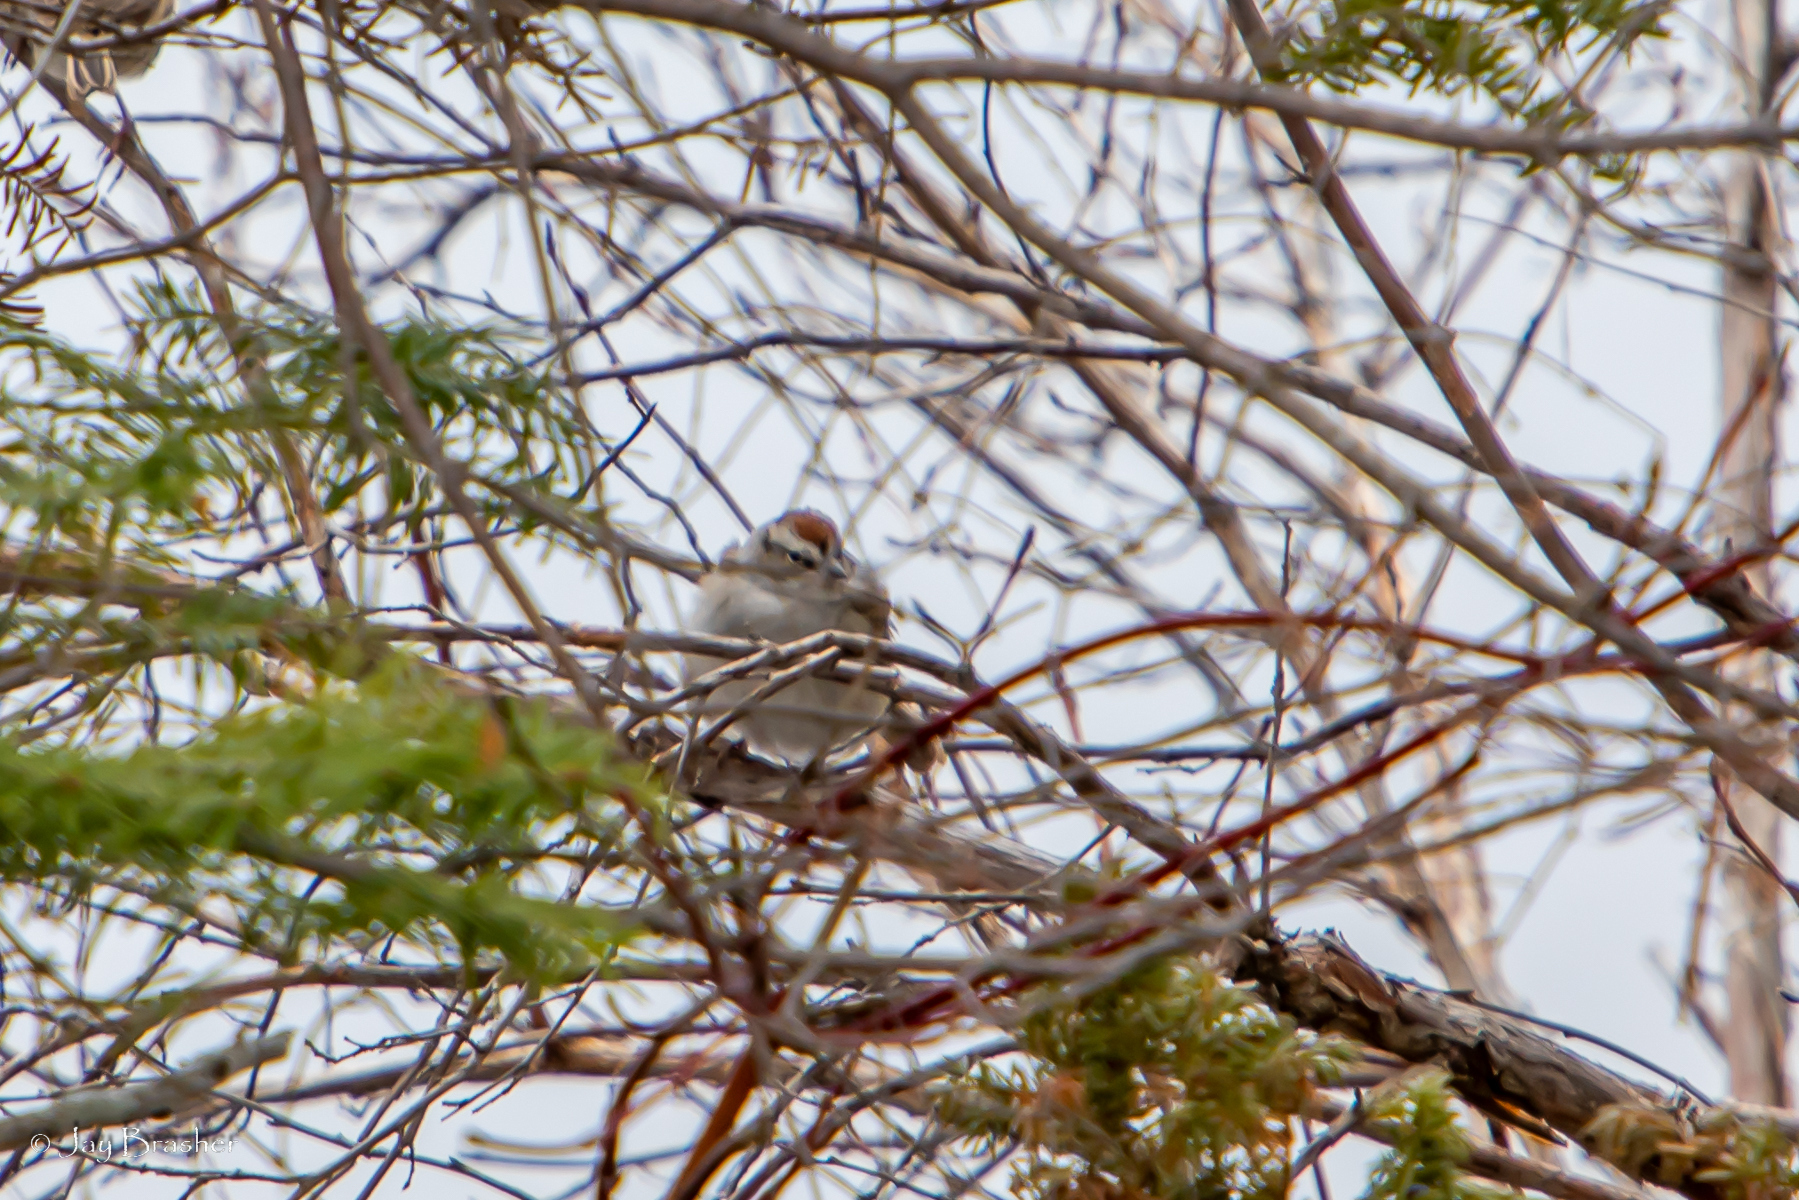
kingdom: Animalia
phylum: Chordata
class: Aves
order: Passeriformes
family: Passerellidae
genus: Spizella
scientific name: Spizella passerina
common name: Chipping sparrow
